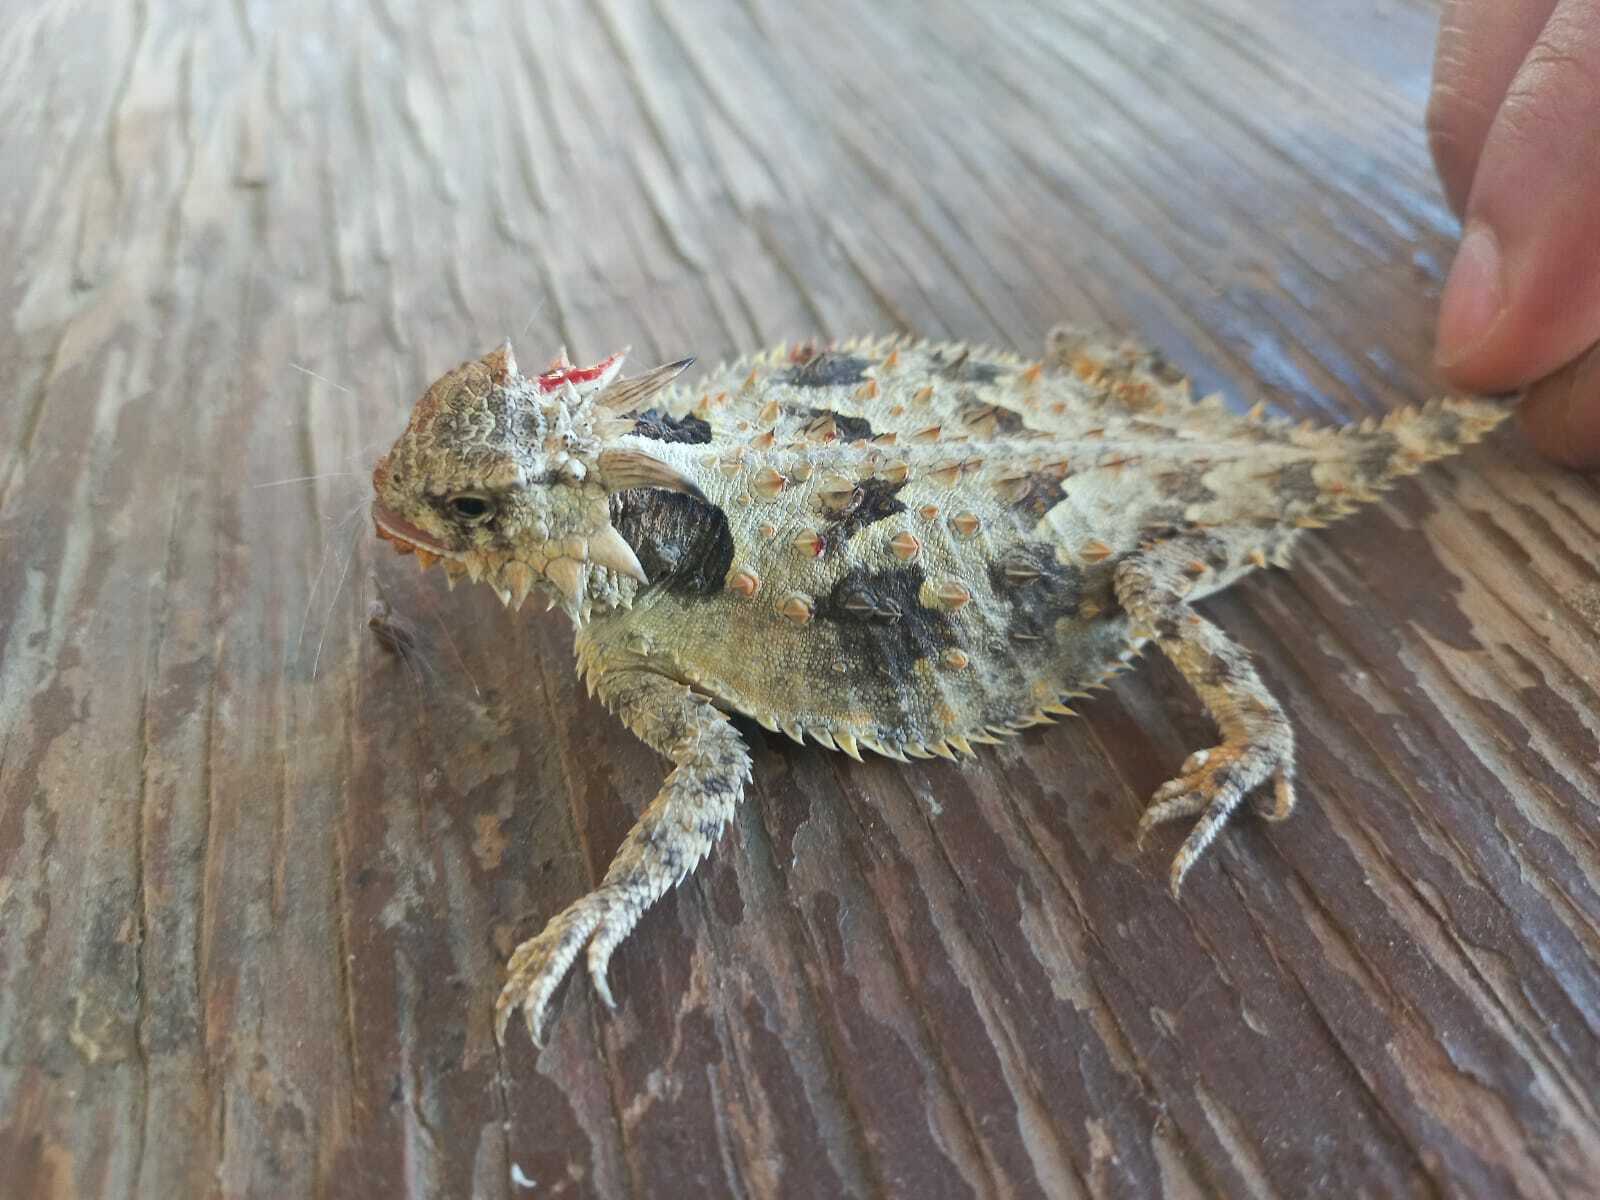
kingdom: Animalia
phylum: Chordata
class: Squamata
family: Phrynosomatidae
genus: Phrynosoma
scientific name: Phrynosoma coronatum
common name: Blainville horned lizard
